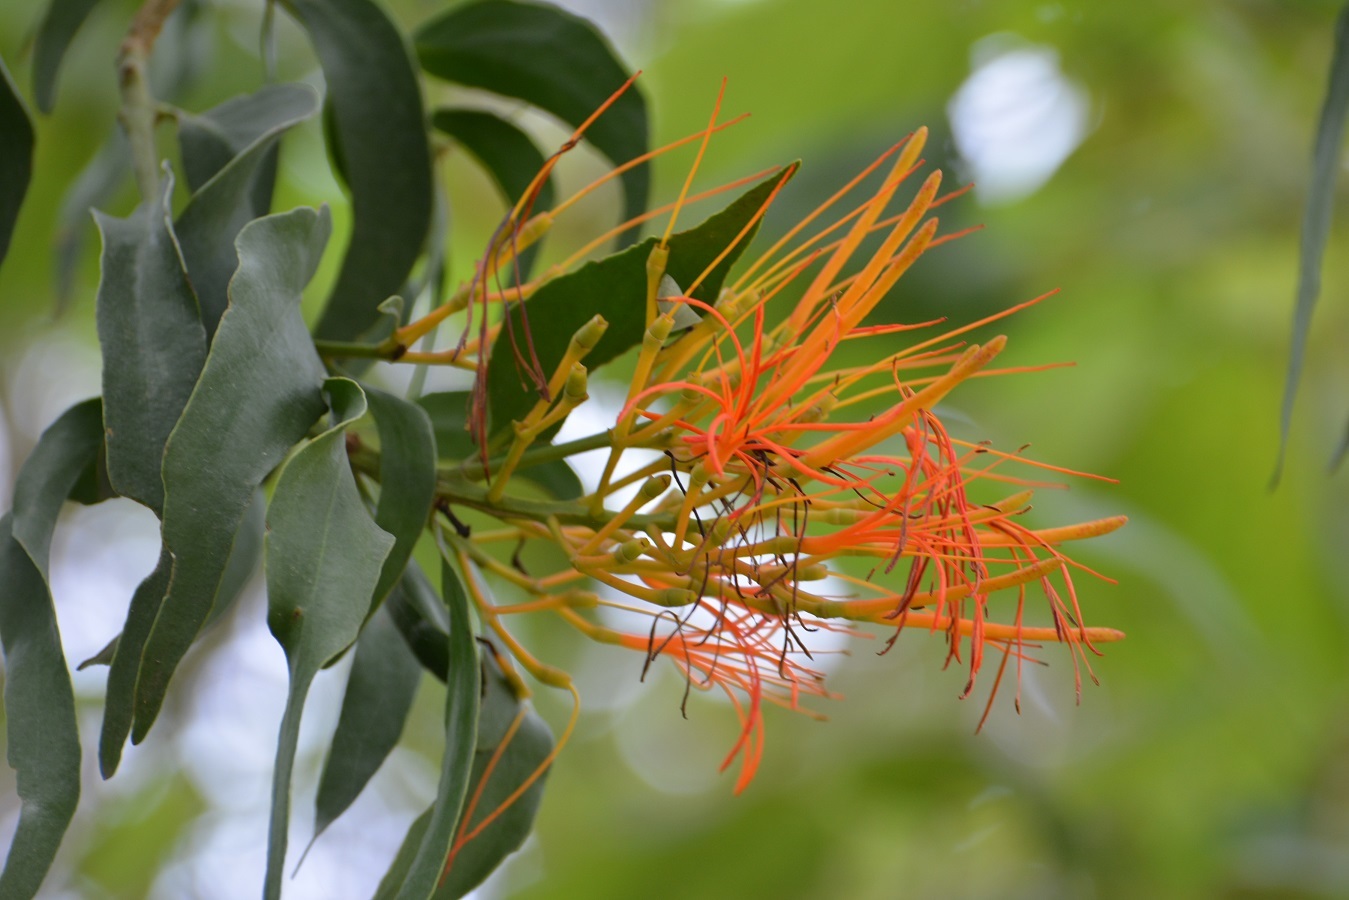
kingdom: Plantae
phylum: Tracheophyta
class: Magnoliopsida
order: Santalales
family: Loranthaceae
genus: Psittacanthus
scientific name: Psittacanthus schiedeanus
